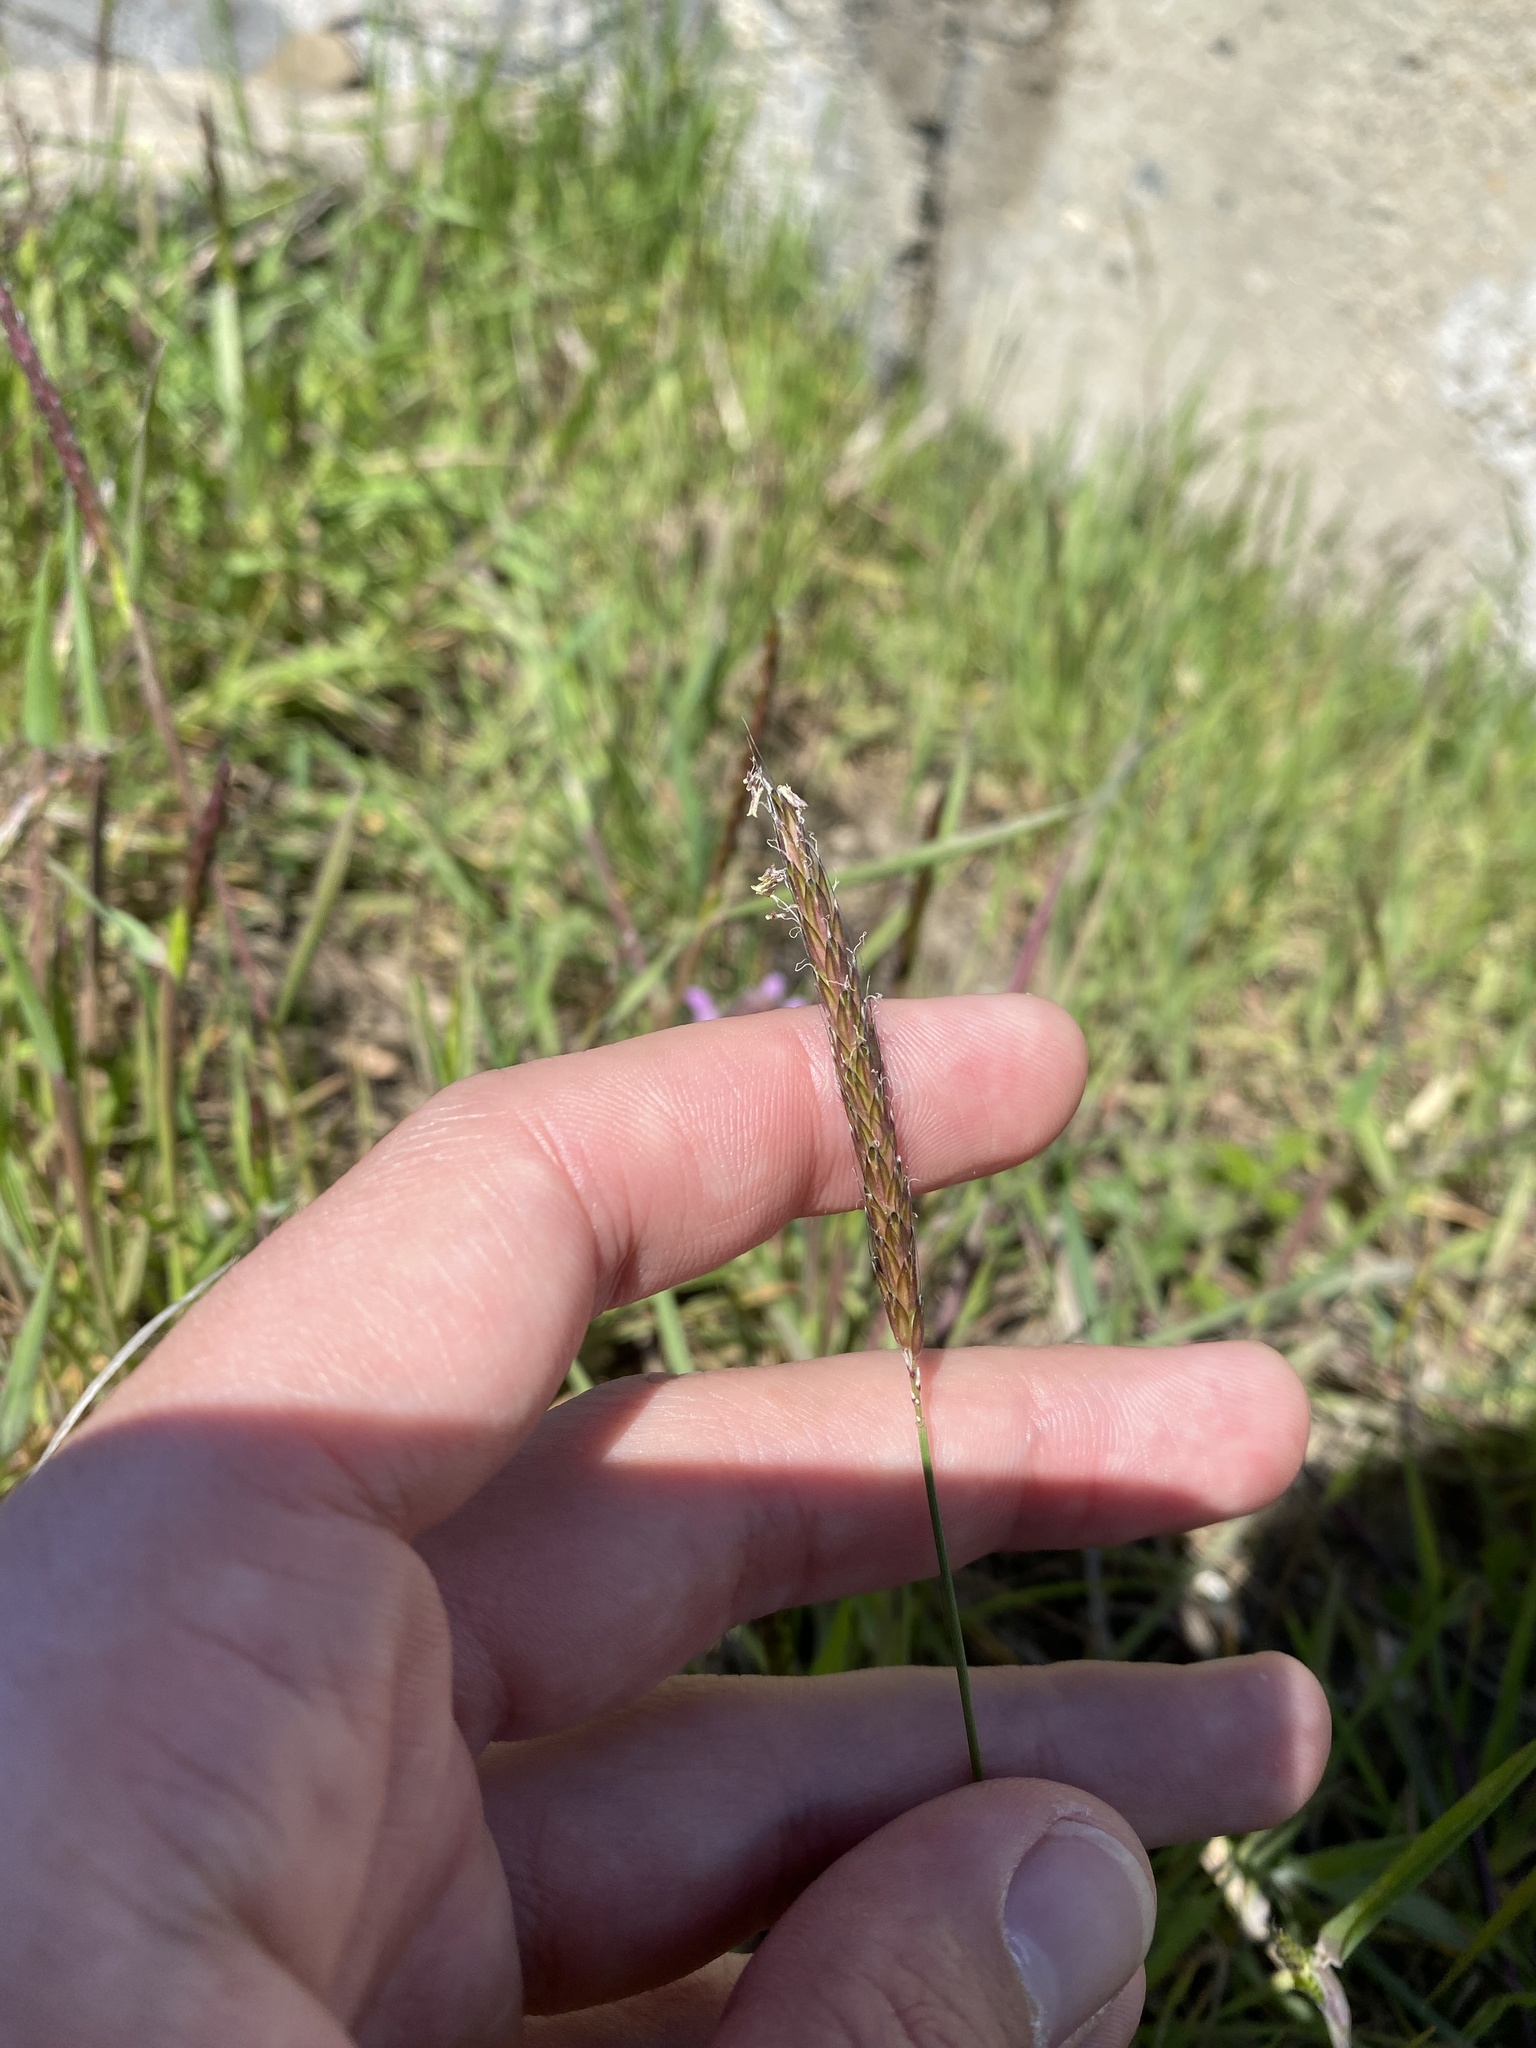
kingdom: Plantae
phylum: Tracheophyta
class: Liliopsida
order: Poales
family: Poaceae
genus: Alopecurus
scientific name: Alopecurus myosuroides
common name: Black-grass
